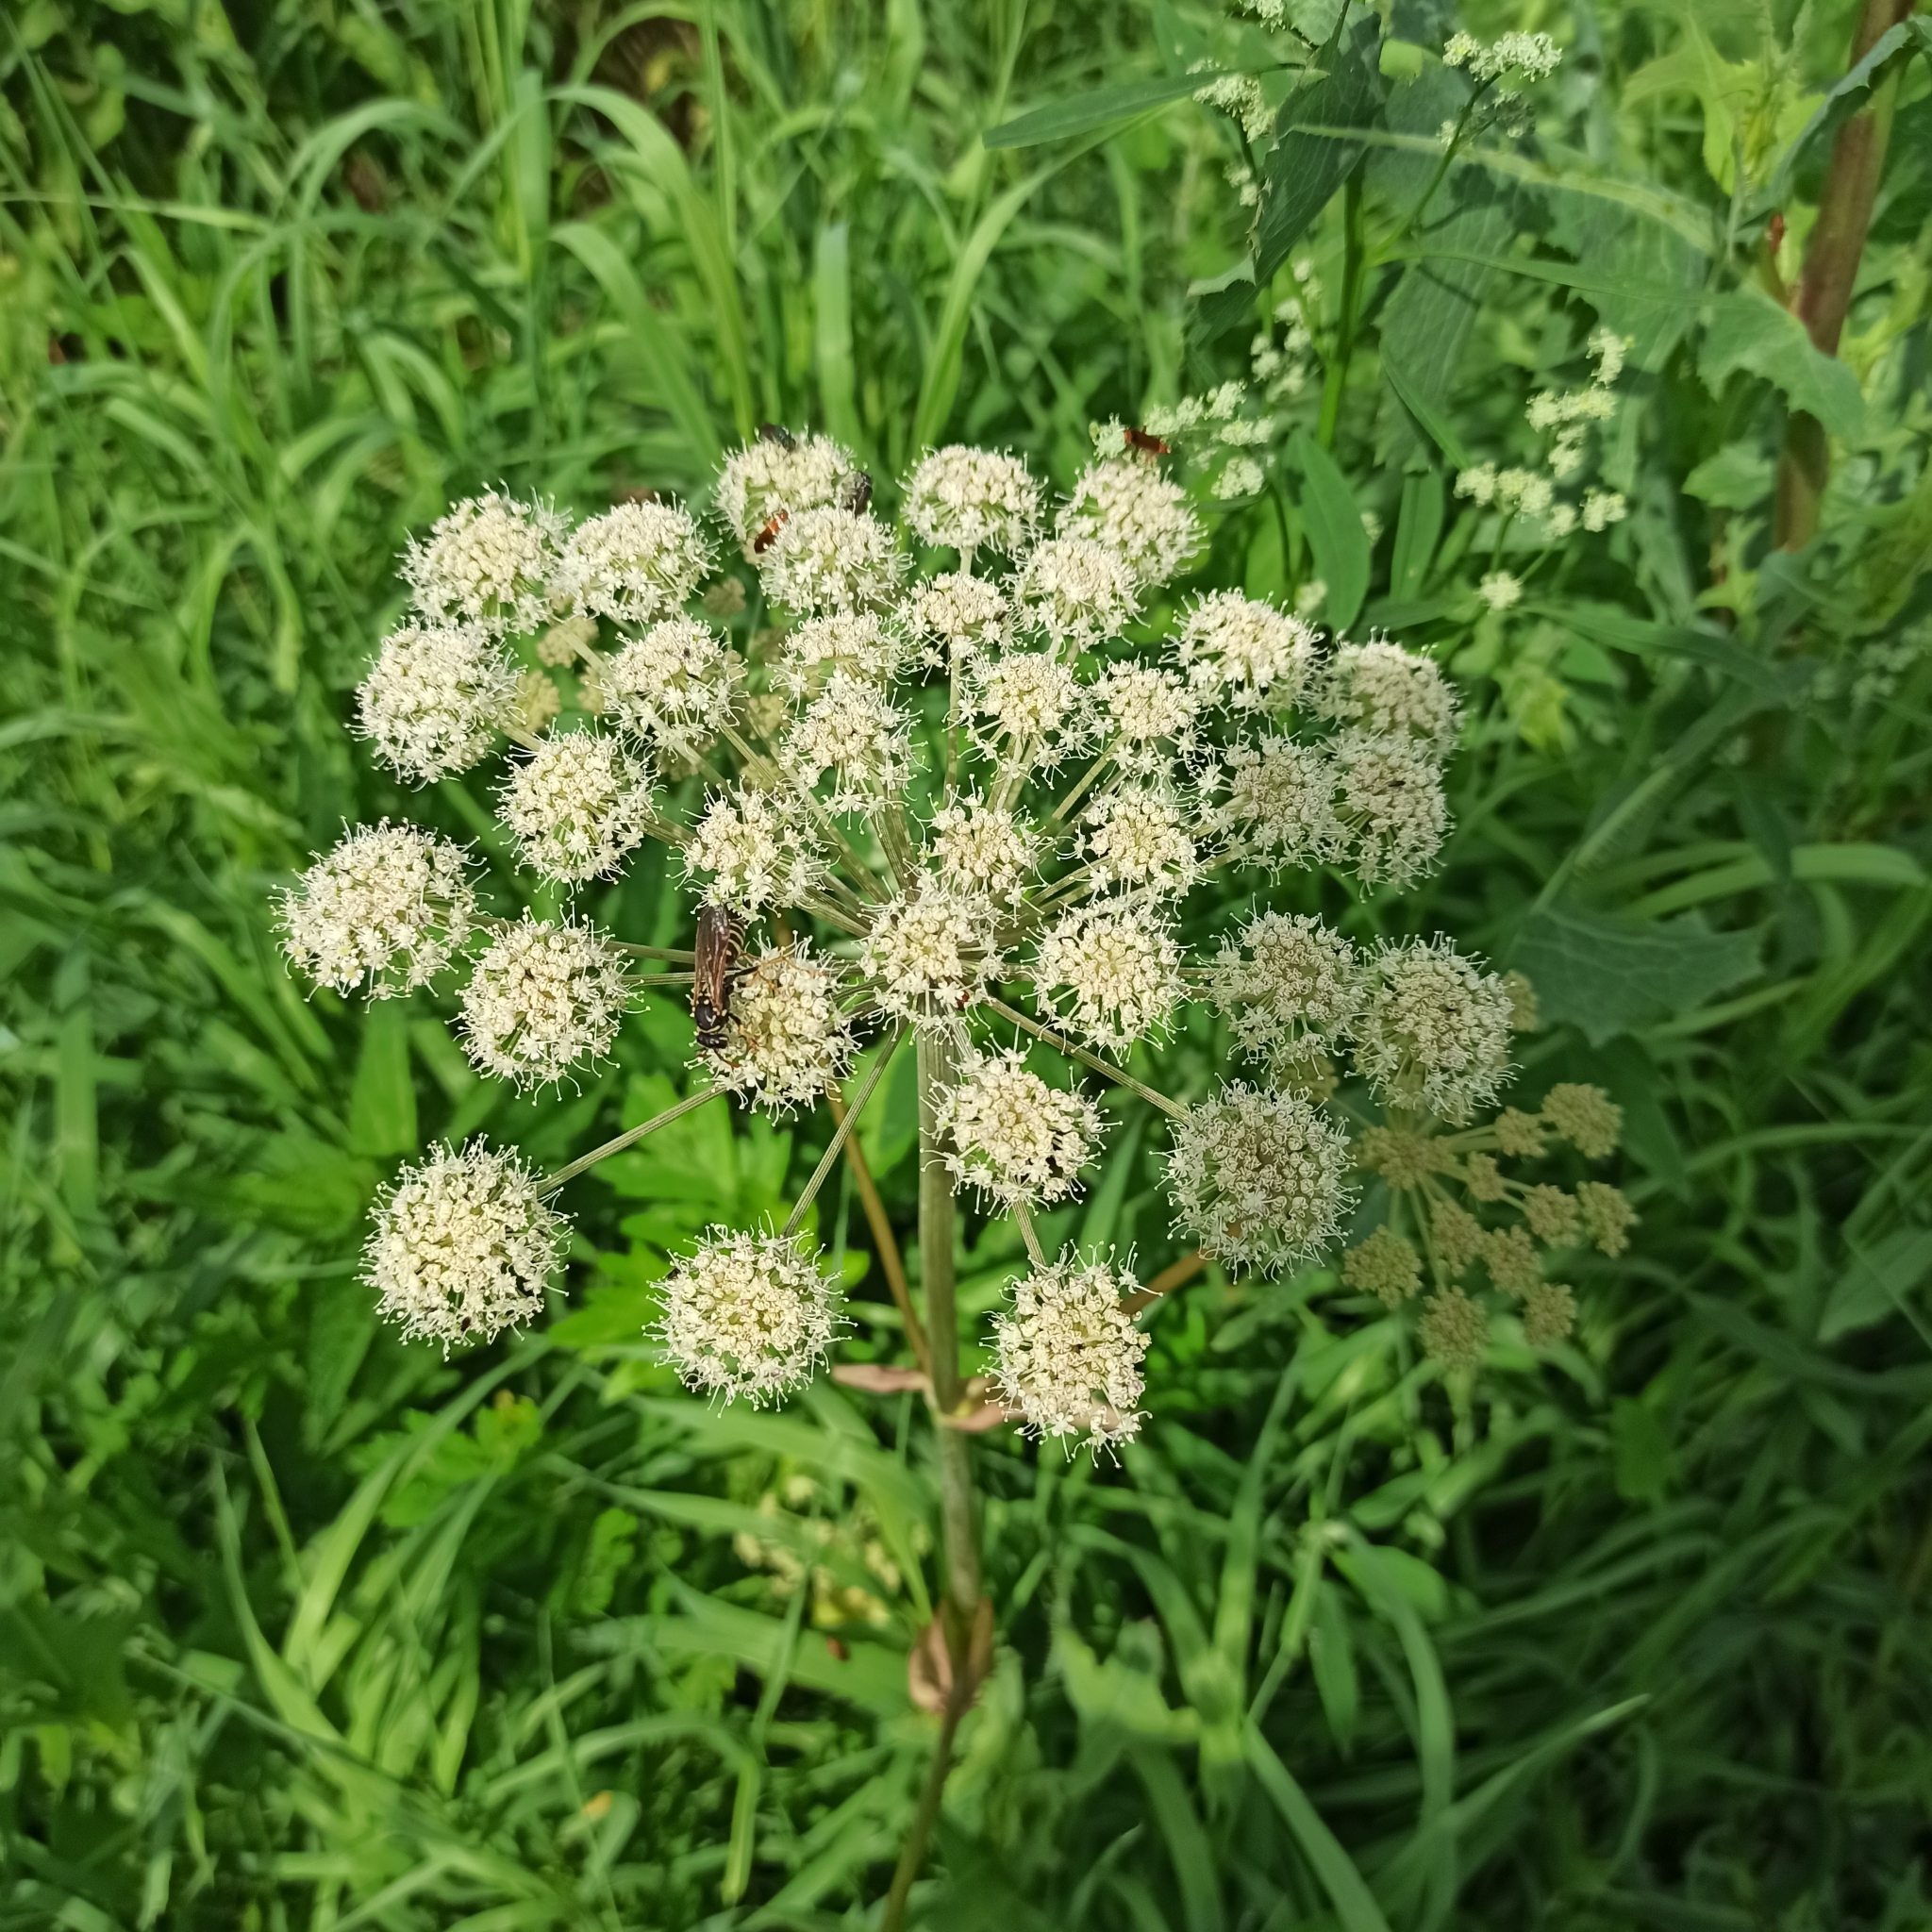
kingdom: Plantae
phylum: Tracheophyta
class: Magnoliopsida
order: Apiales
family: Apiaceae
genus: Angelica
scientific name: Angelica sylvestris
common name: Wild angelica
